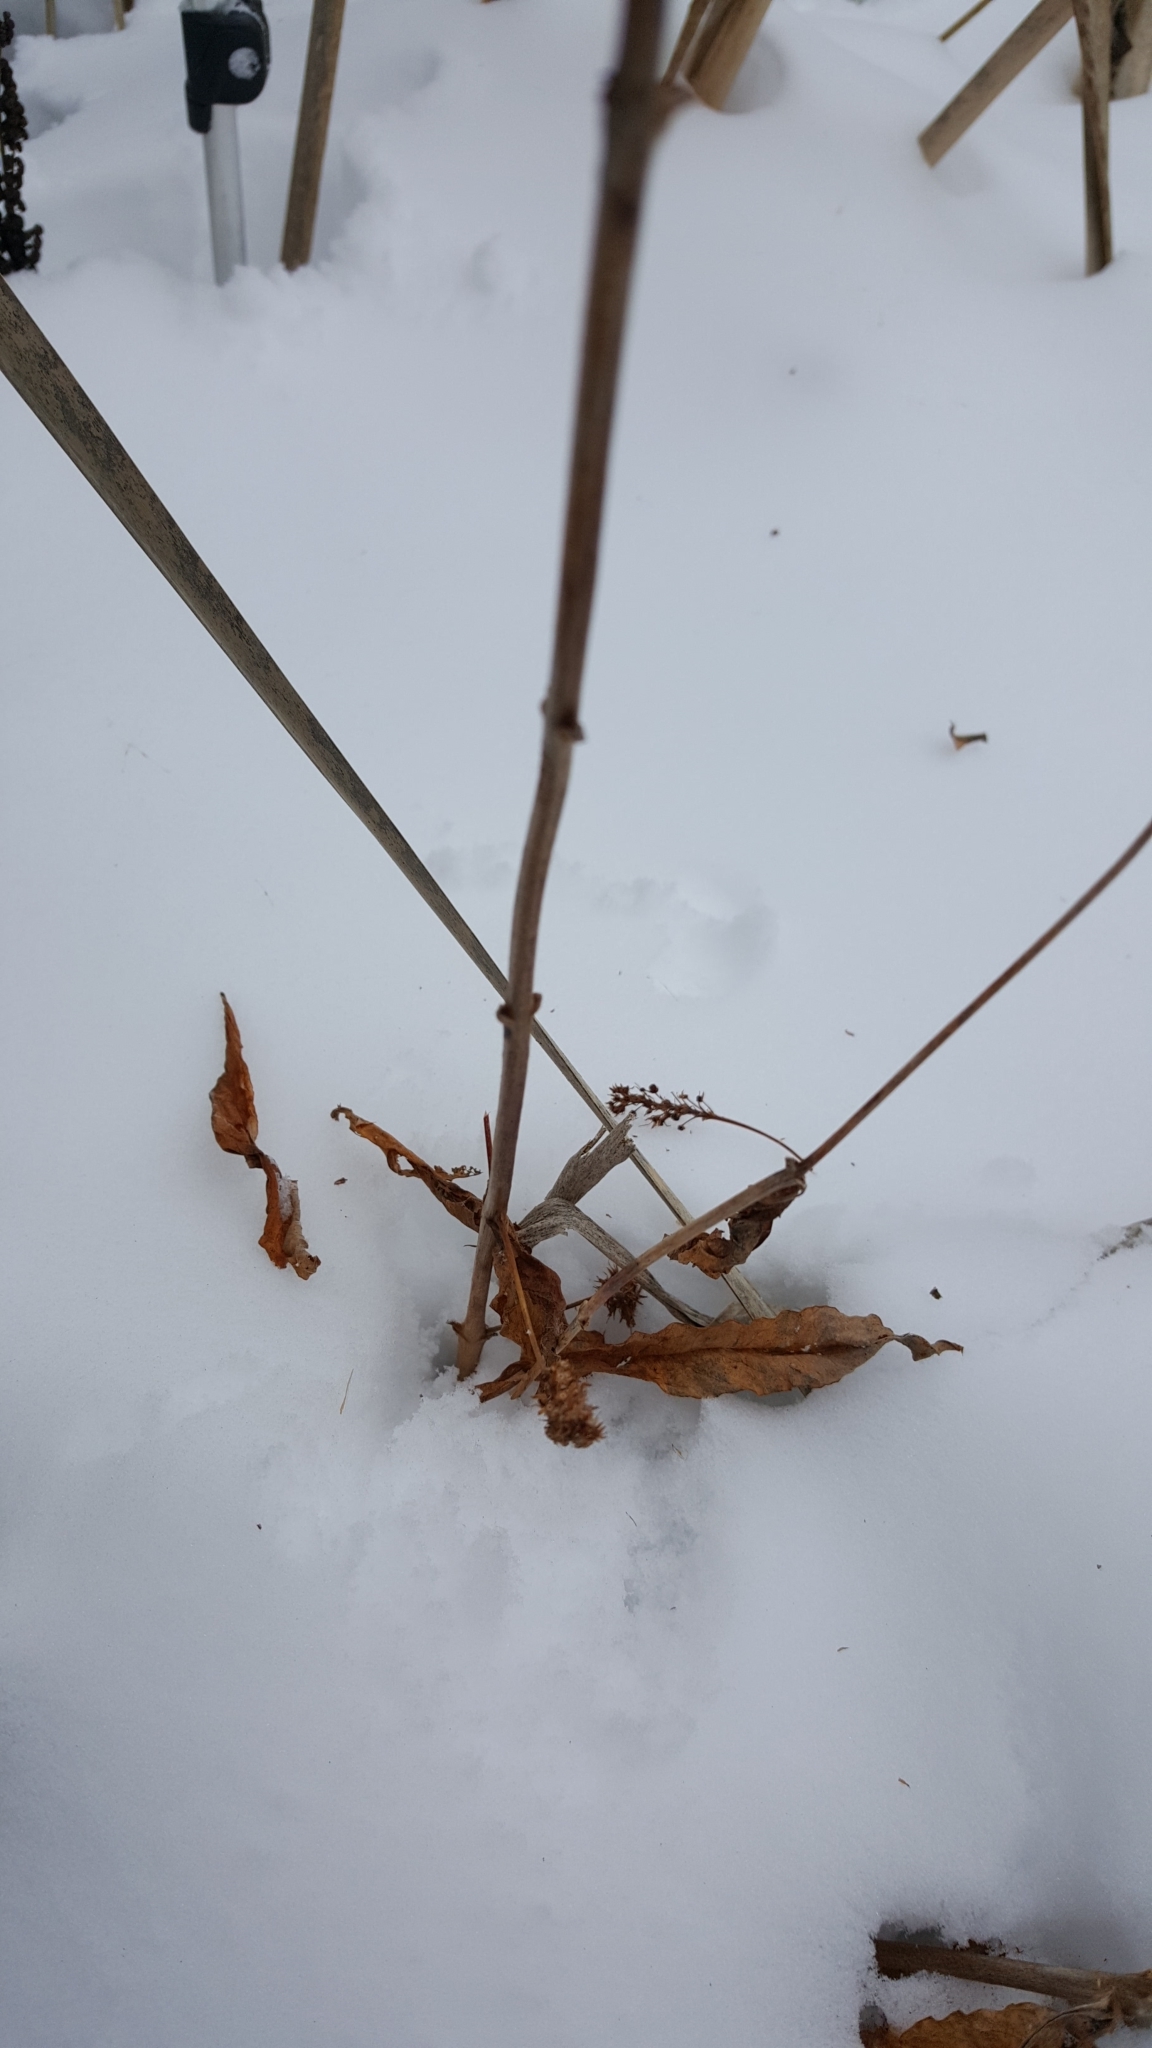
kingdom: Plantae
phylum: Tracheophyta
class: Magnoliopsida
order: Ericales
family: Primulaceae
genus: Lysimachia
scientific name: Lysimachia thyrsiflora
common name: Tufted loosestrife
